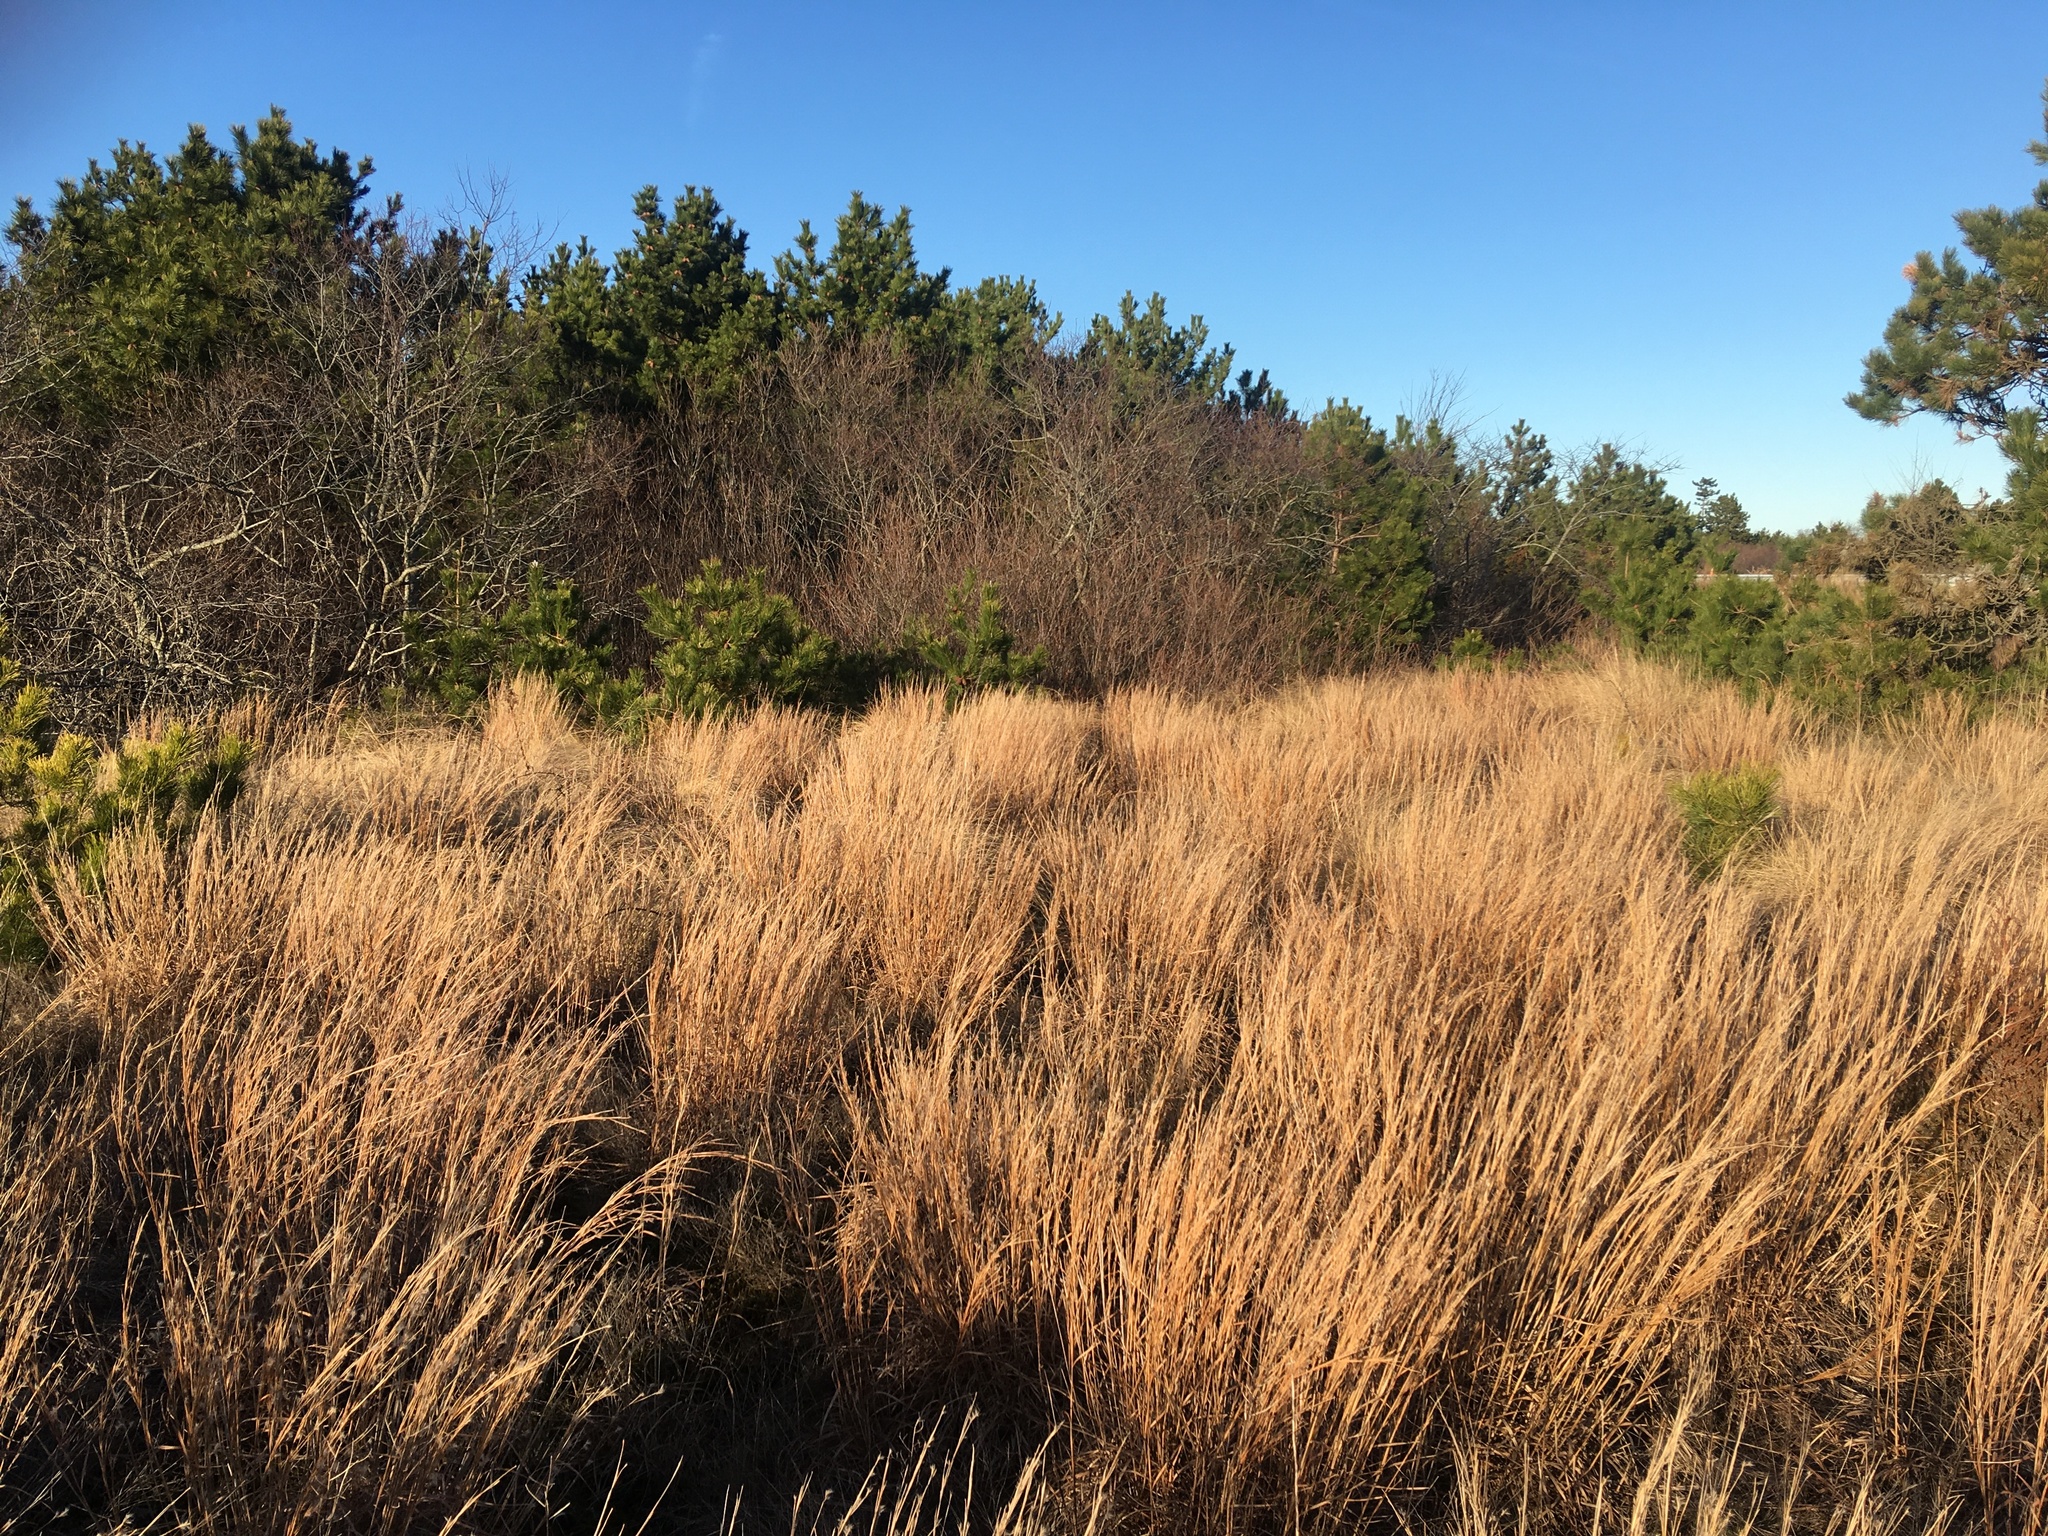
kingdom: Plantae
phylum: Tracheophyta
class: Liliopsida
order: Poales
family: Poaceae
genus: Schizachyrium
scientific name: Schizachyrium scoparium
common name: Little bluestem
